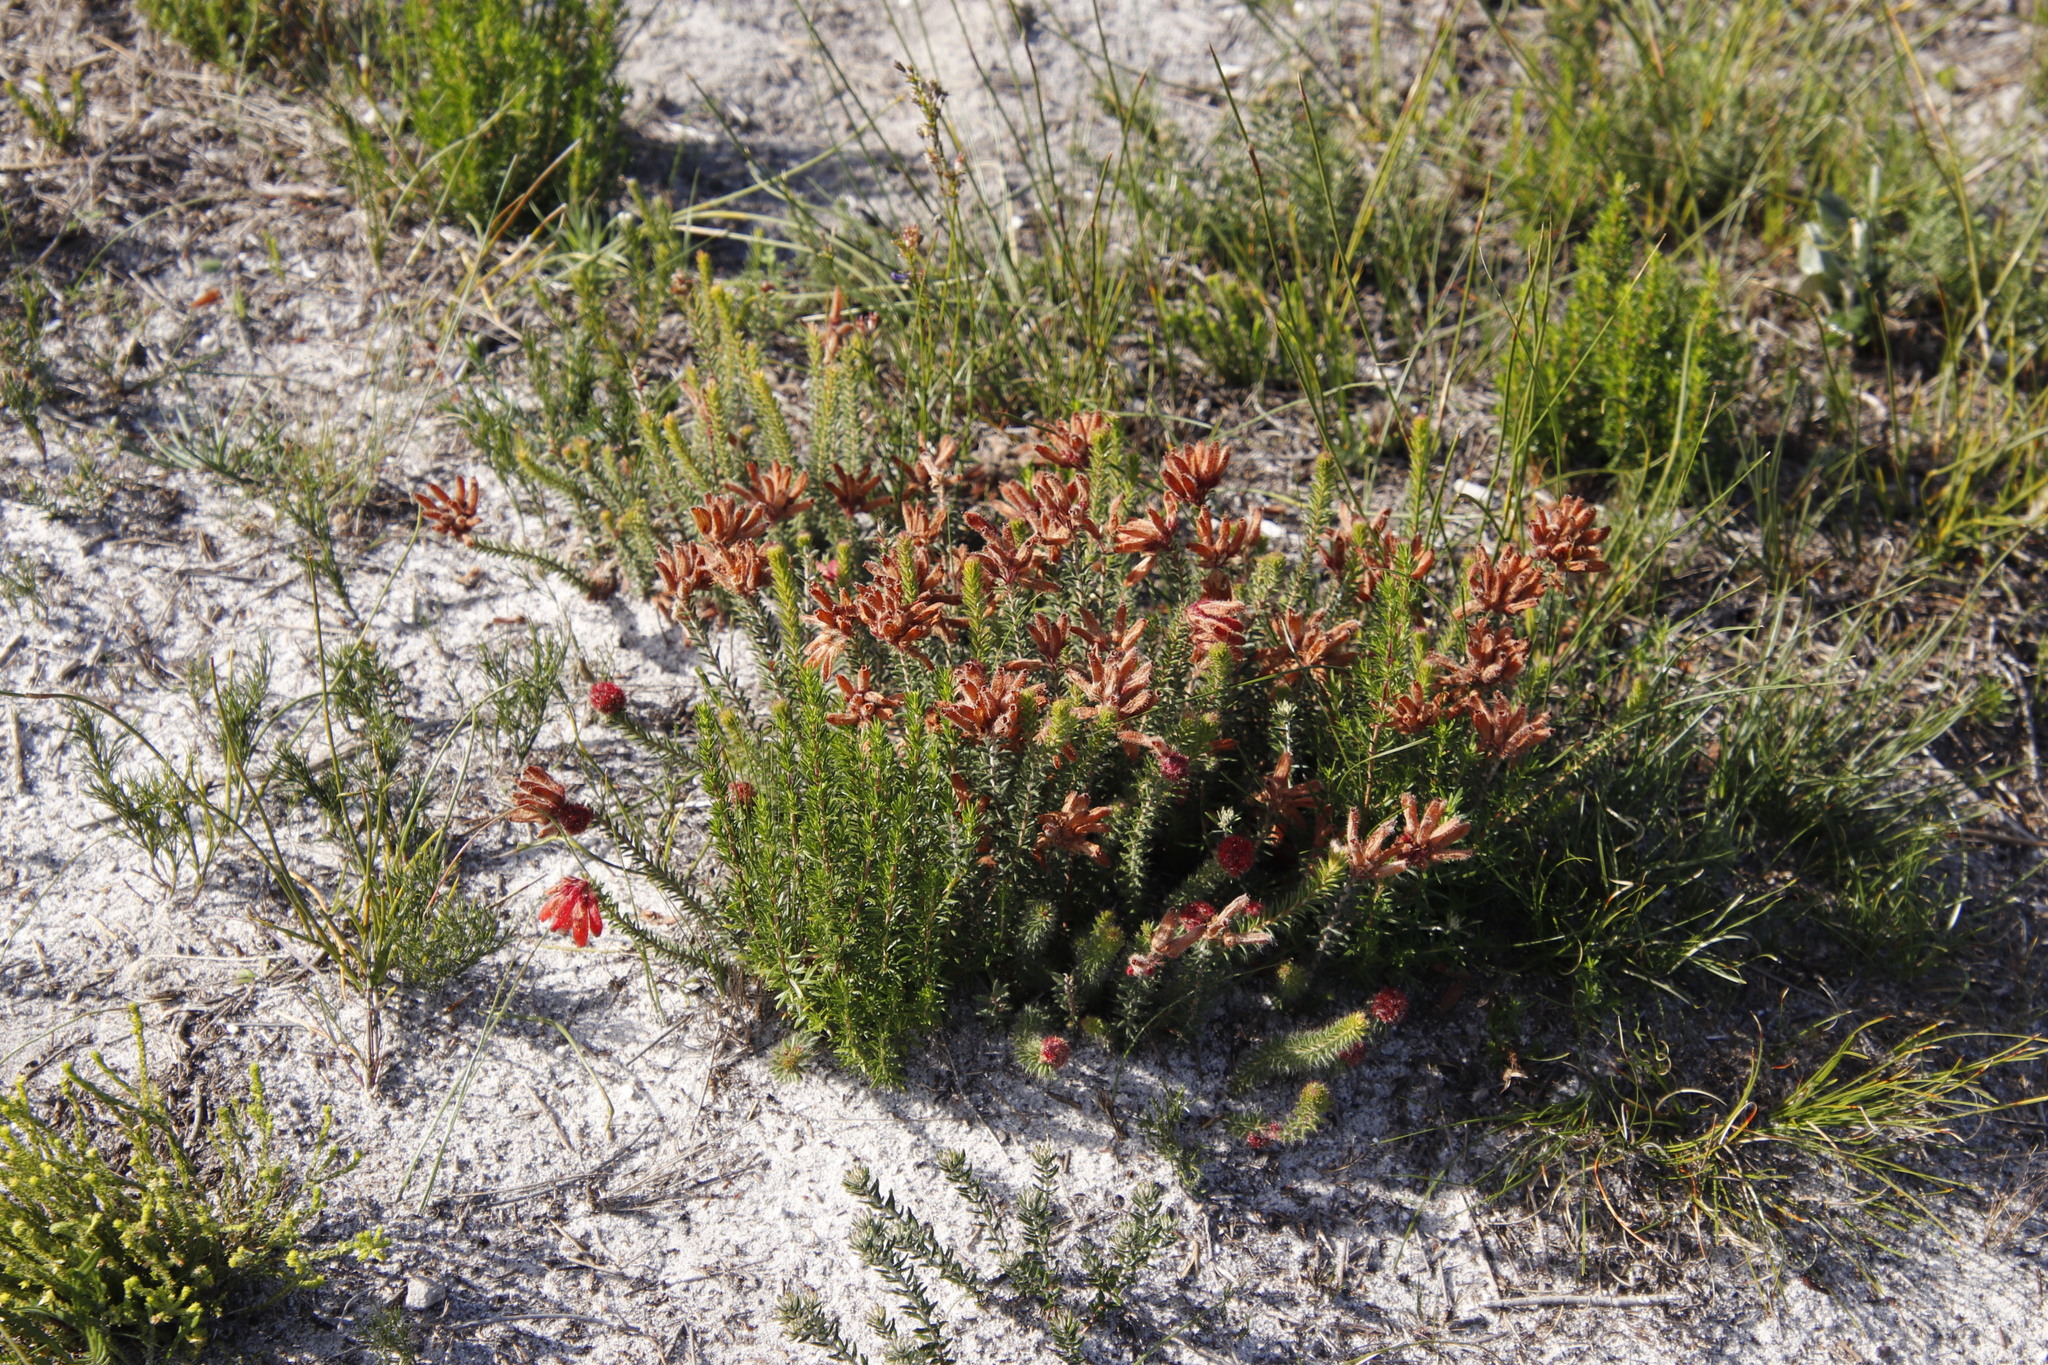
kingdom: Plantae
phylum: Tracheophyta
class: Magnoliopsida
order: Ericales
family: Ericaceae
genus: Erica
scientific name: Erica cerinthoides
